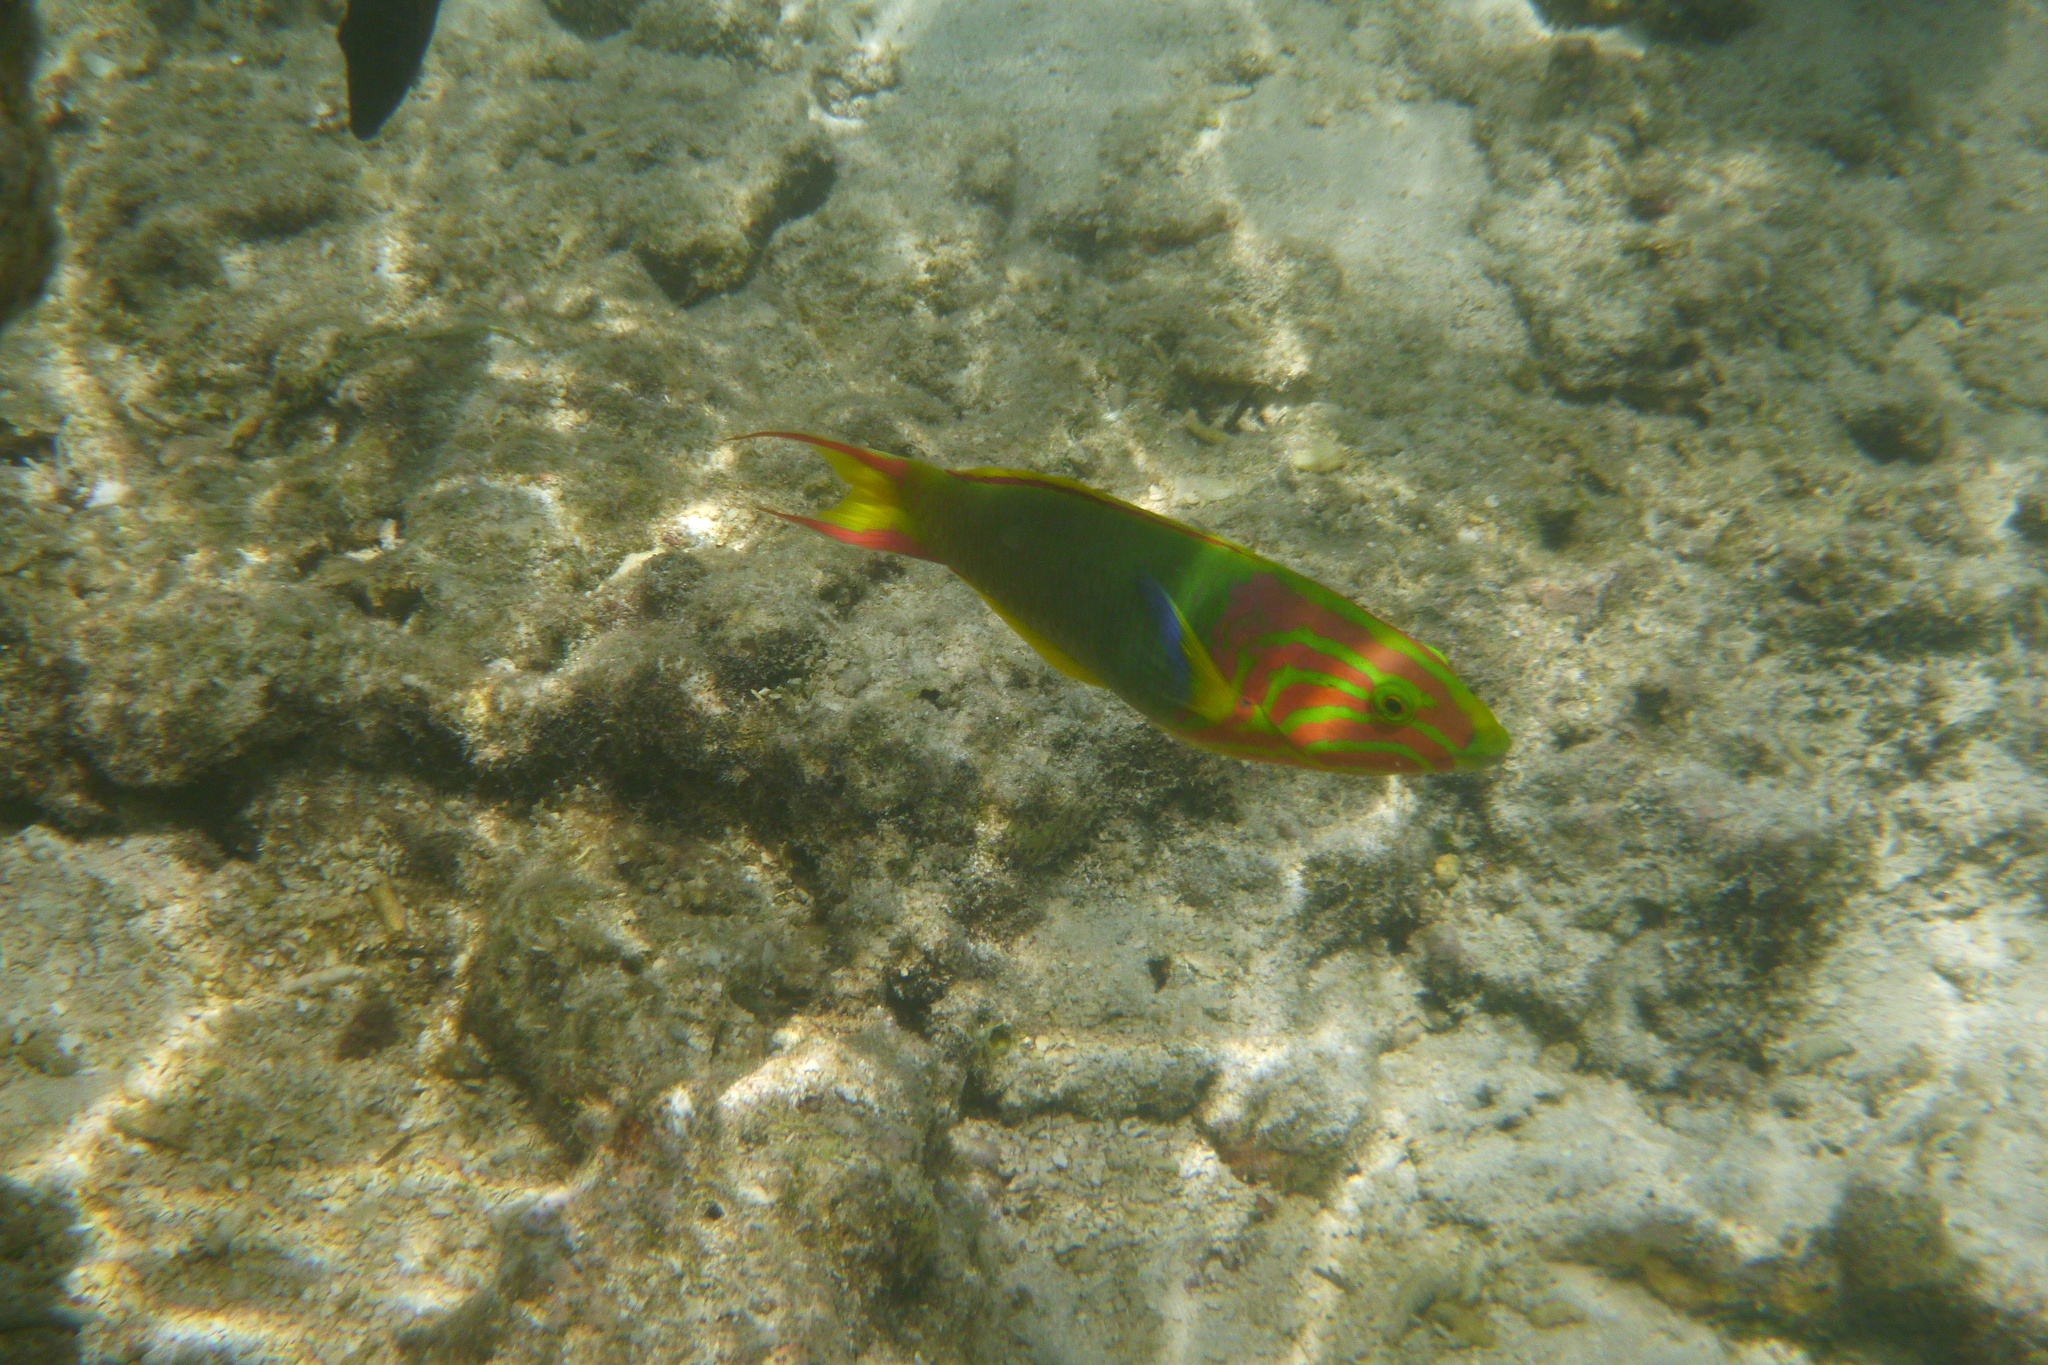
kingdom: Animalia
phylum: Chordata
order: Perciformes
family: Labridae
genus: Thalassoma
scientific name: Thalassoma lutescens
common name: Green moon wrasse
